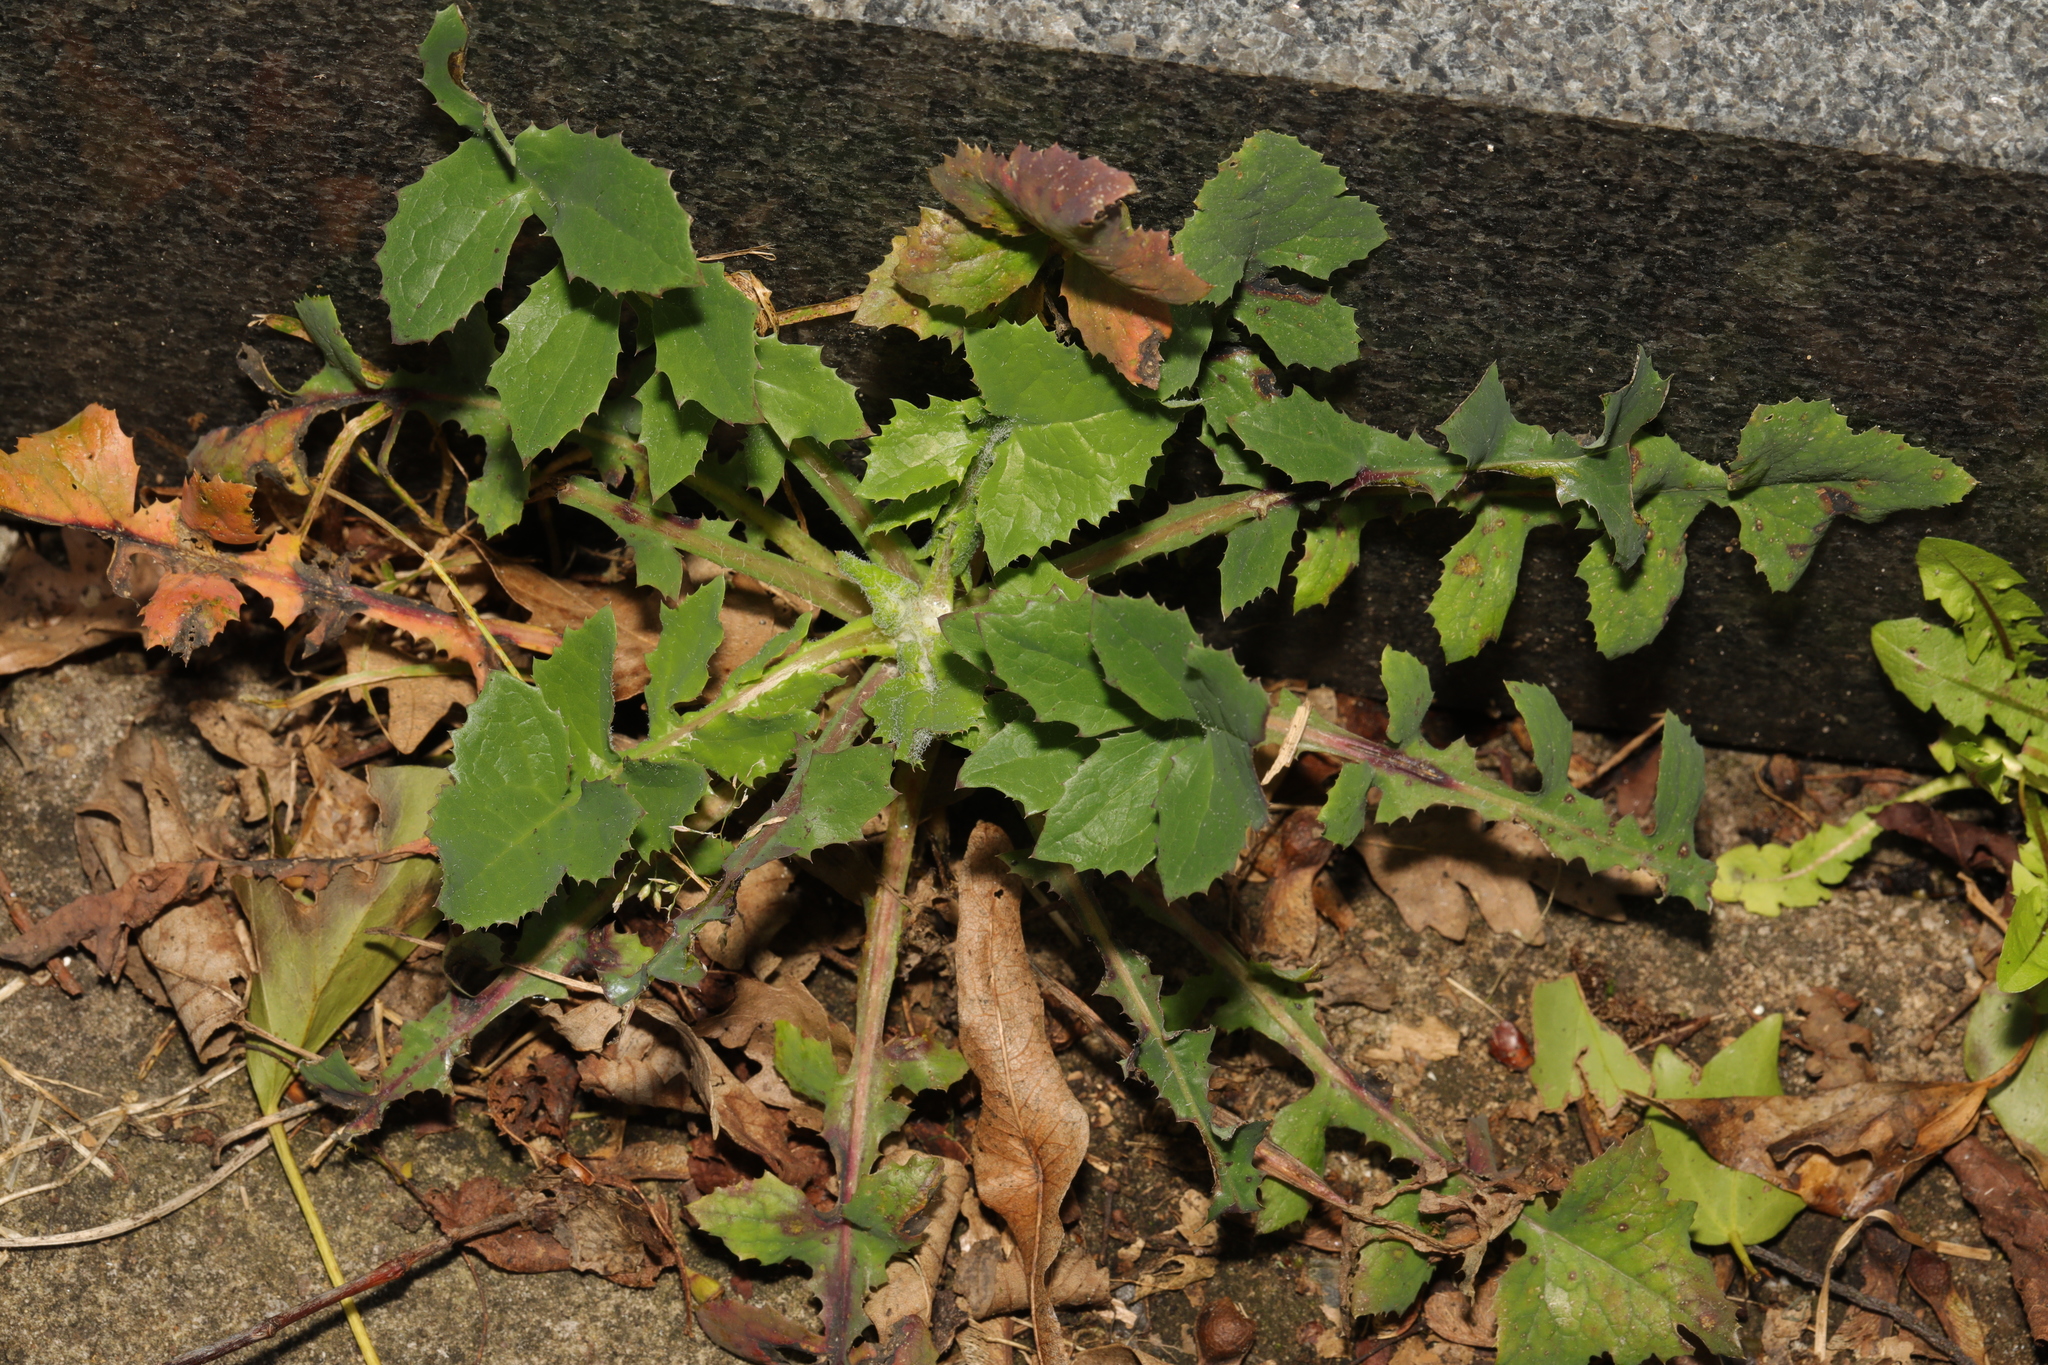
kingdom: Plantae
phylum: Tracheophyta
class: Magnoliopsida
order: Asterales
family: Asteraceae
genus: Sonchus
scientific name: Sonchus oleraceus
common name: Common sowthistle
